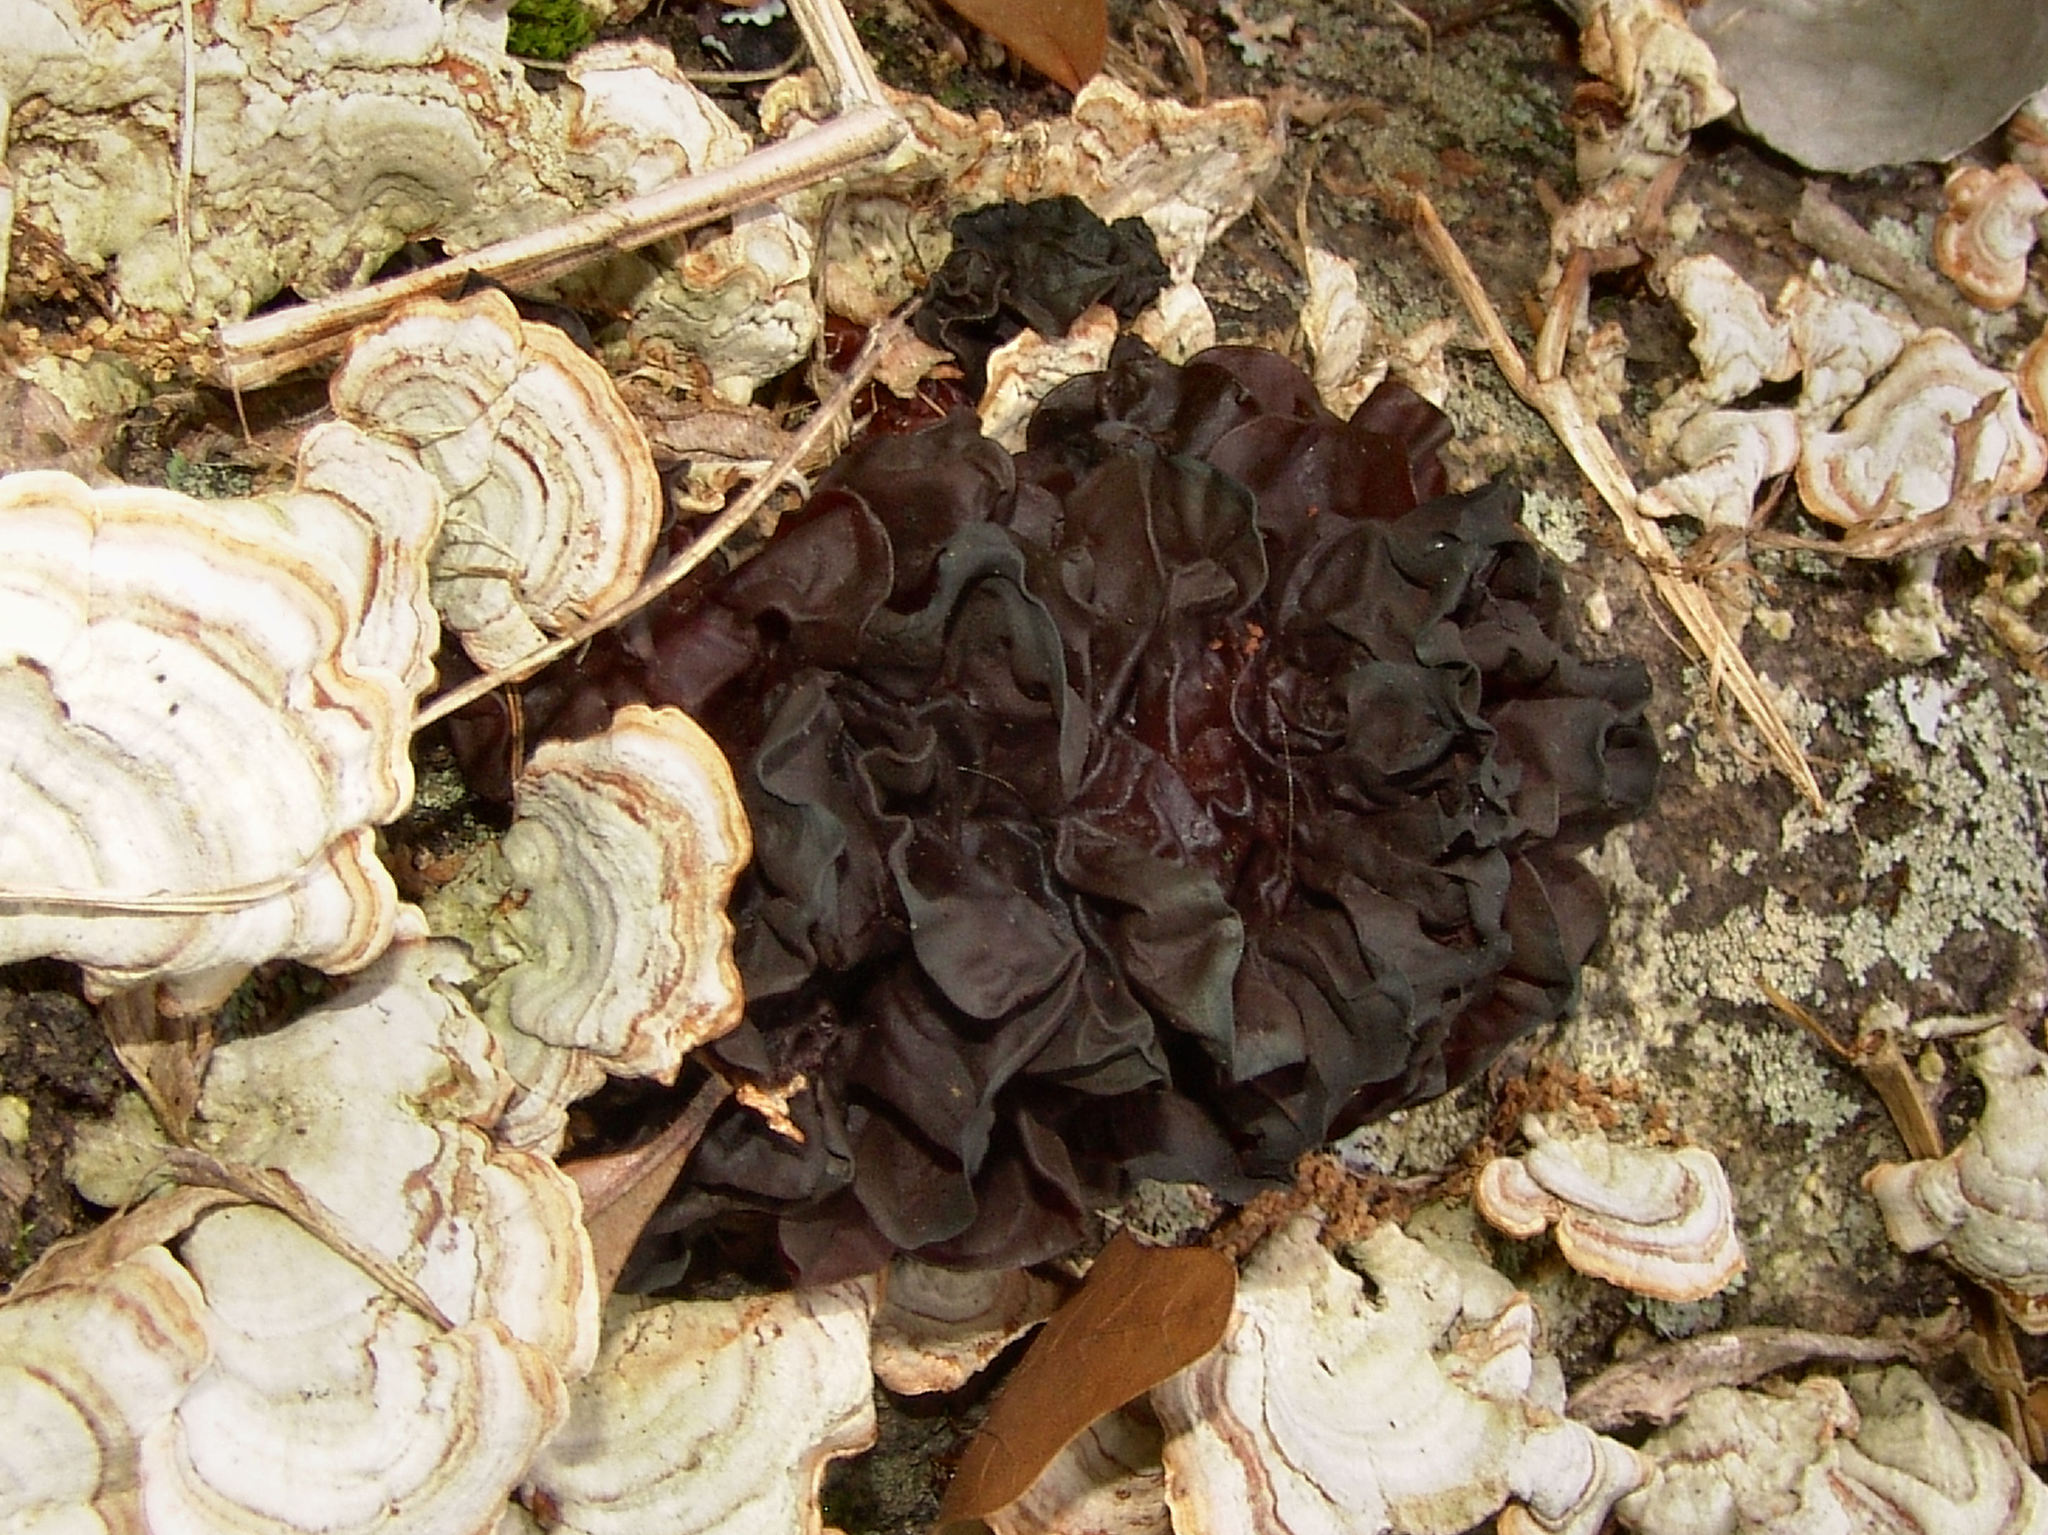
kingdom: Fungi
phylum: Basidiomycota
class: Tremellomycetes
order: Tremellales
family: Tremellaceae
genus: Phaeotremella
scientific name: Phaeotremella foliacea
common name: Leafy brain
